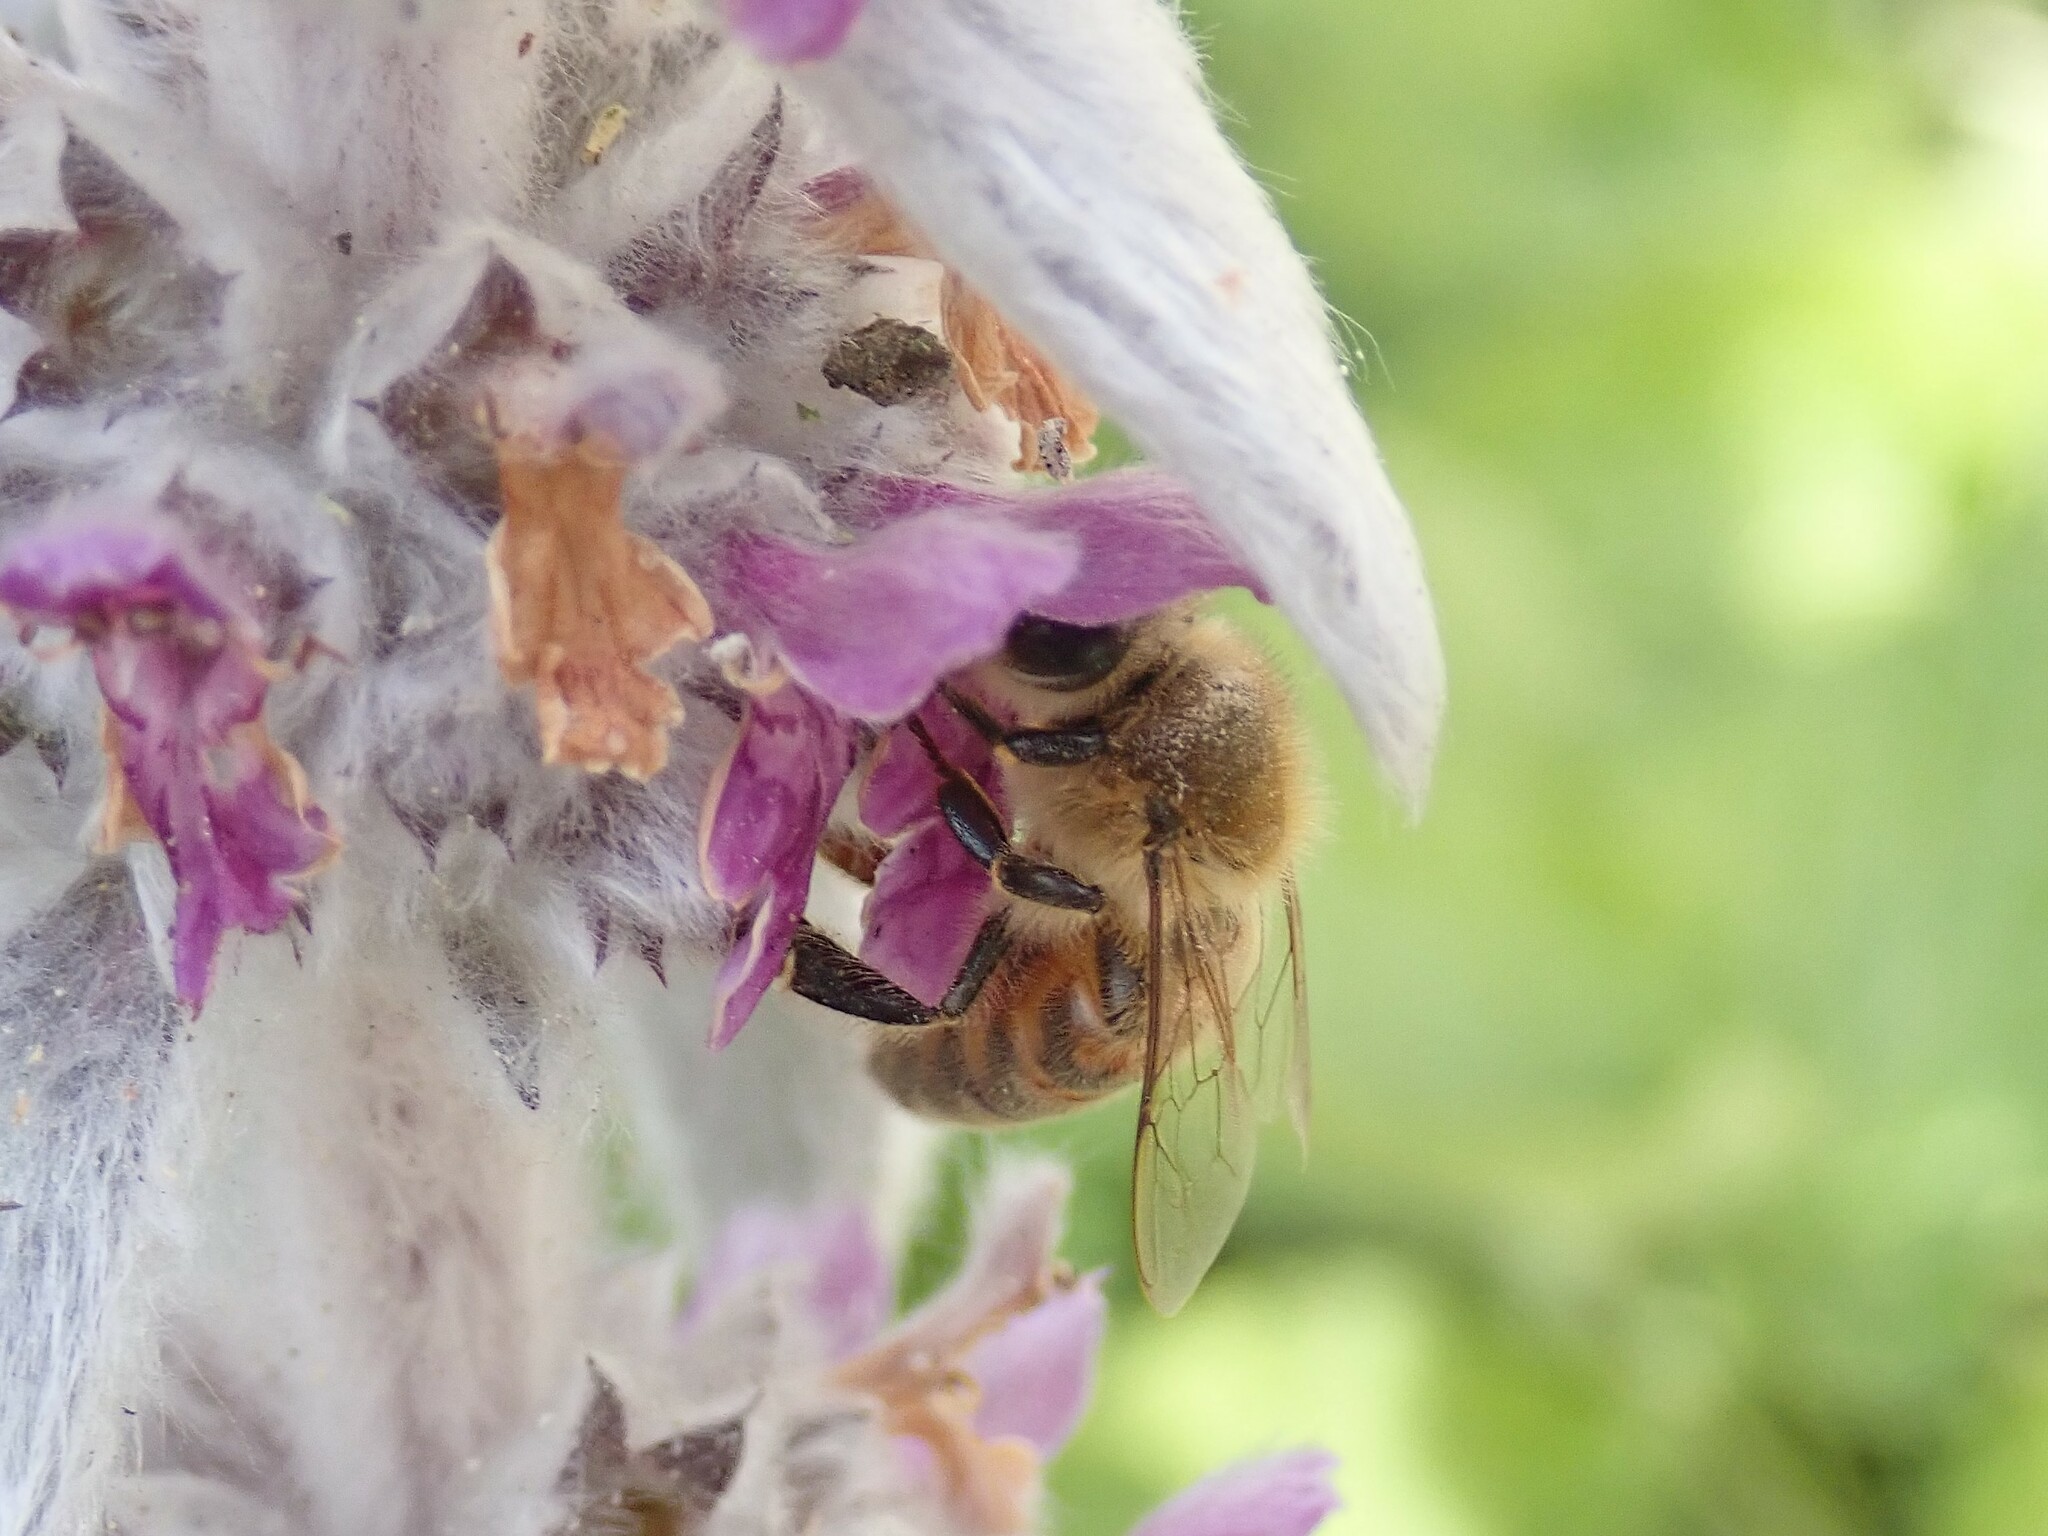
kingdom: Animalia
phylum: Arthropoda
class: Insecta
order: Hymenoptera
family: Apidae
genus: Apis
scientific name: Apis mellifera
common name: Honey bee
